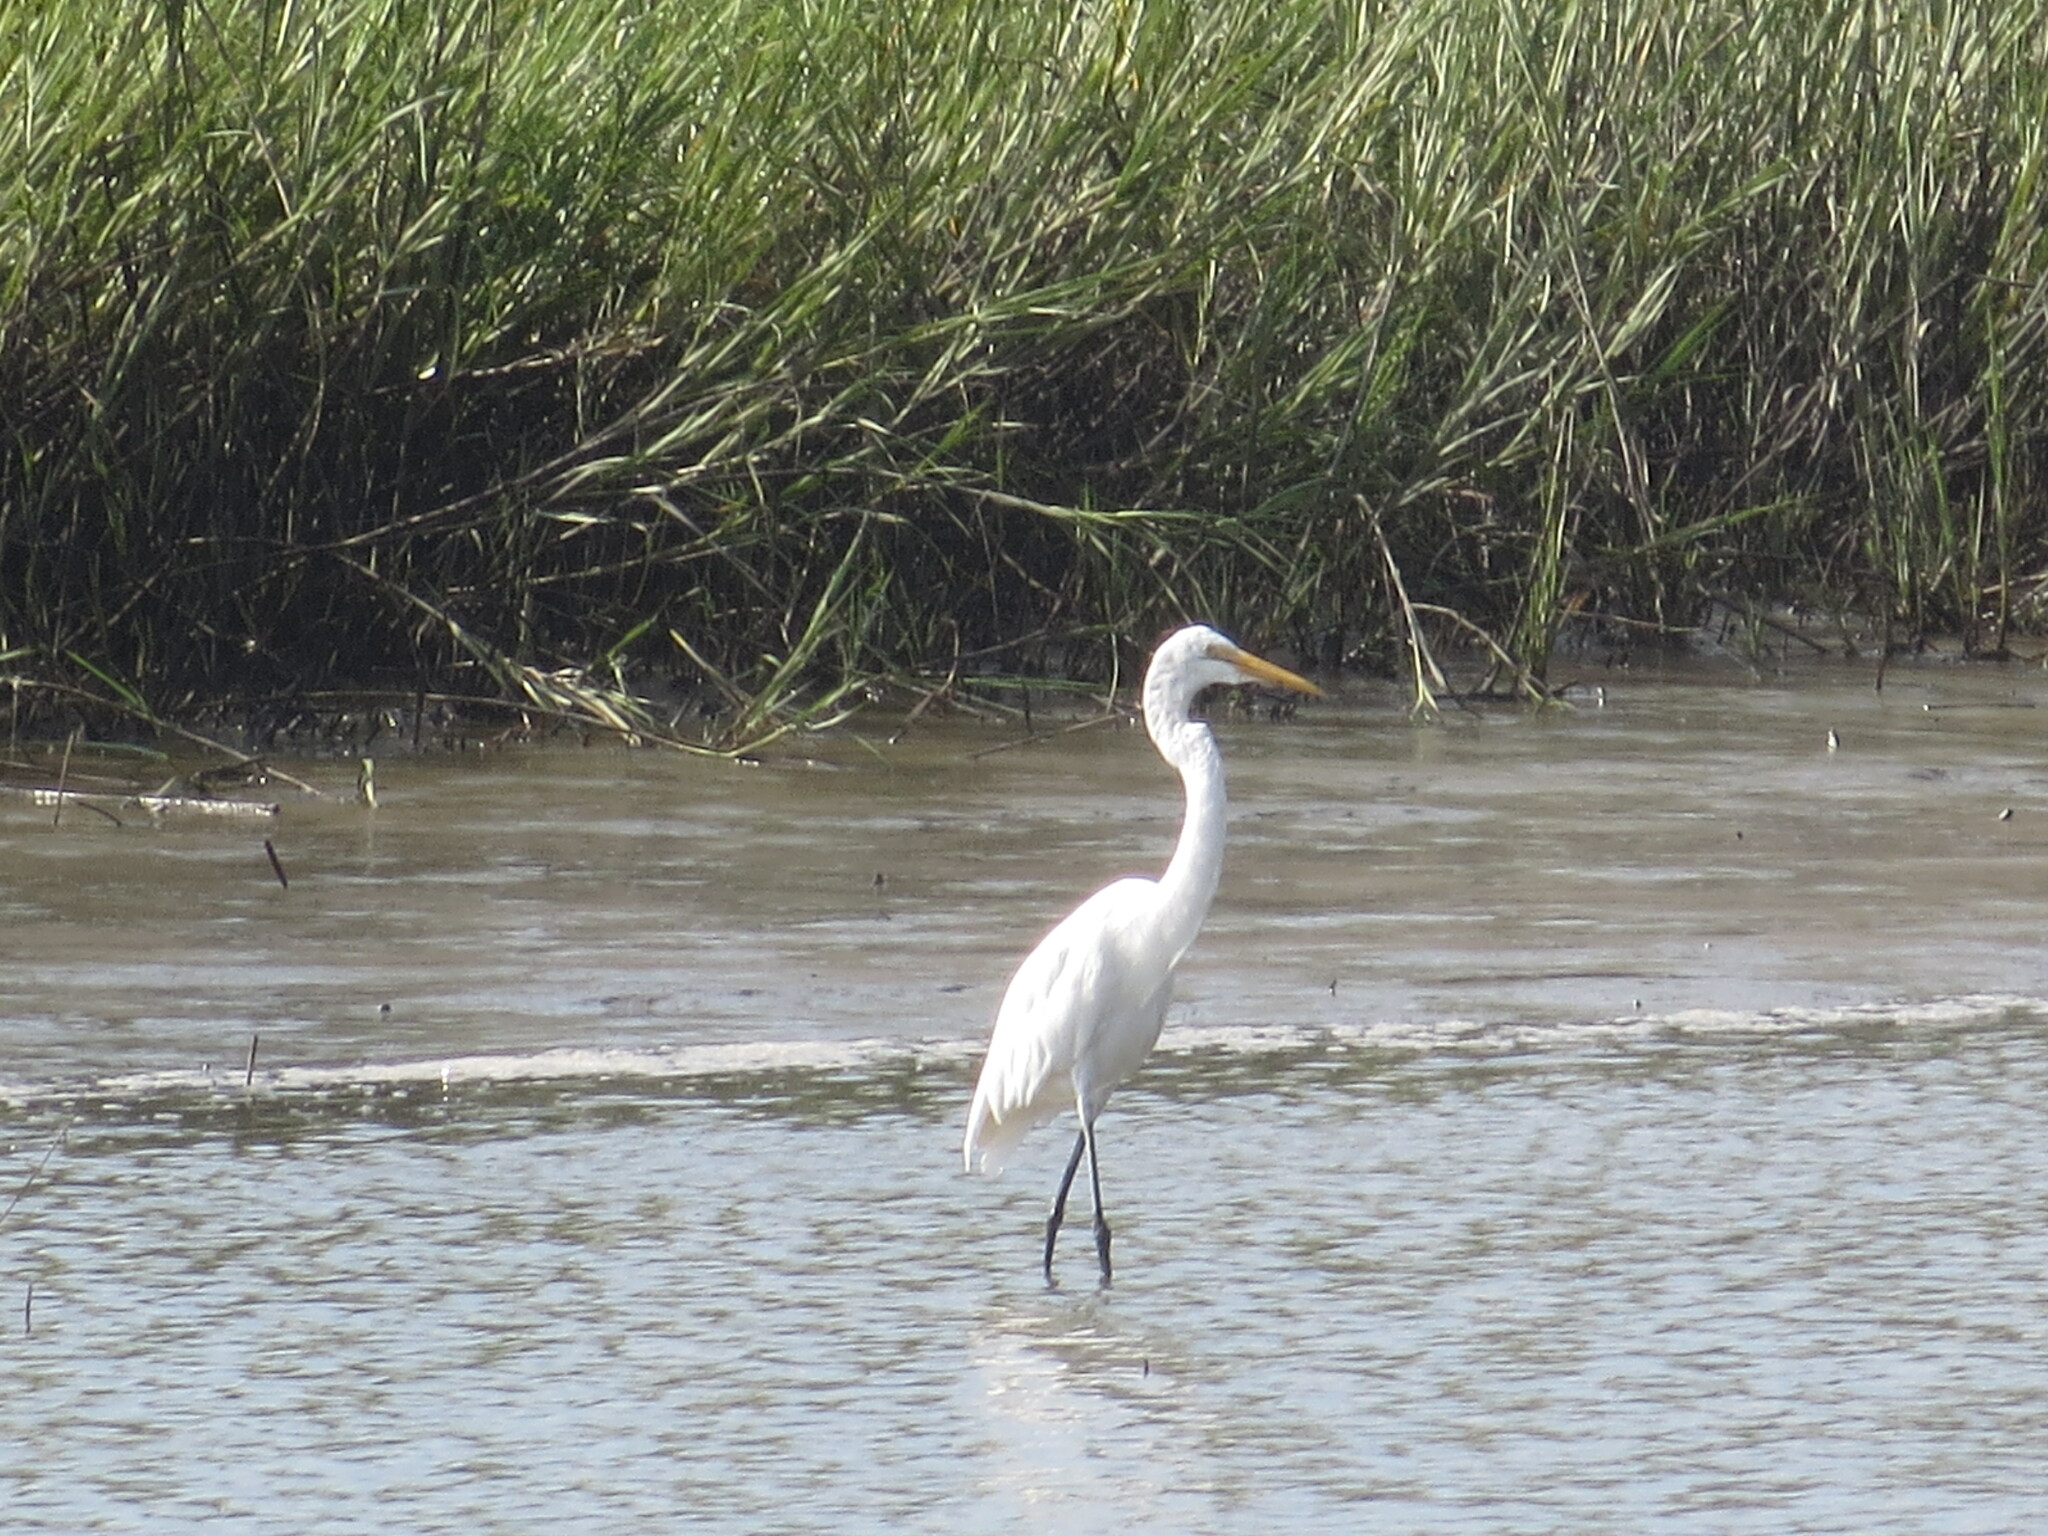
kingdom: Animalia
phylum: Chordata
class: Aves
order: Pelecaniformes
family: Ardeidae
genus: Ardea
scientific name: Ardea alba
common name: Great egret
